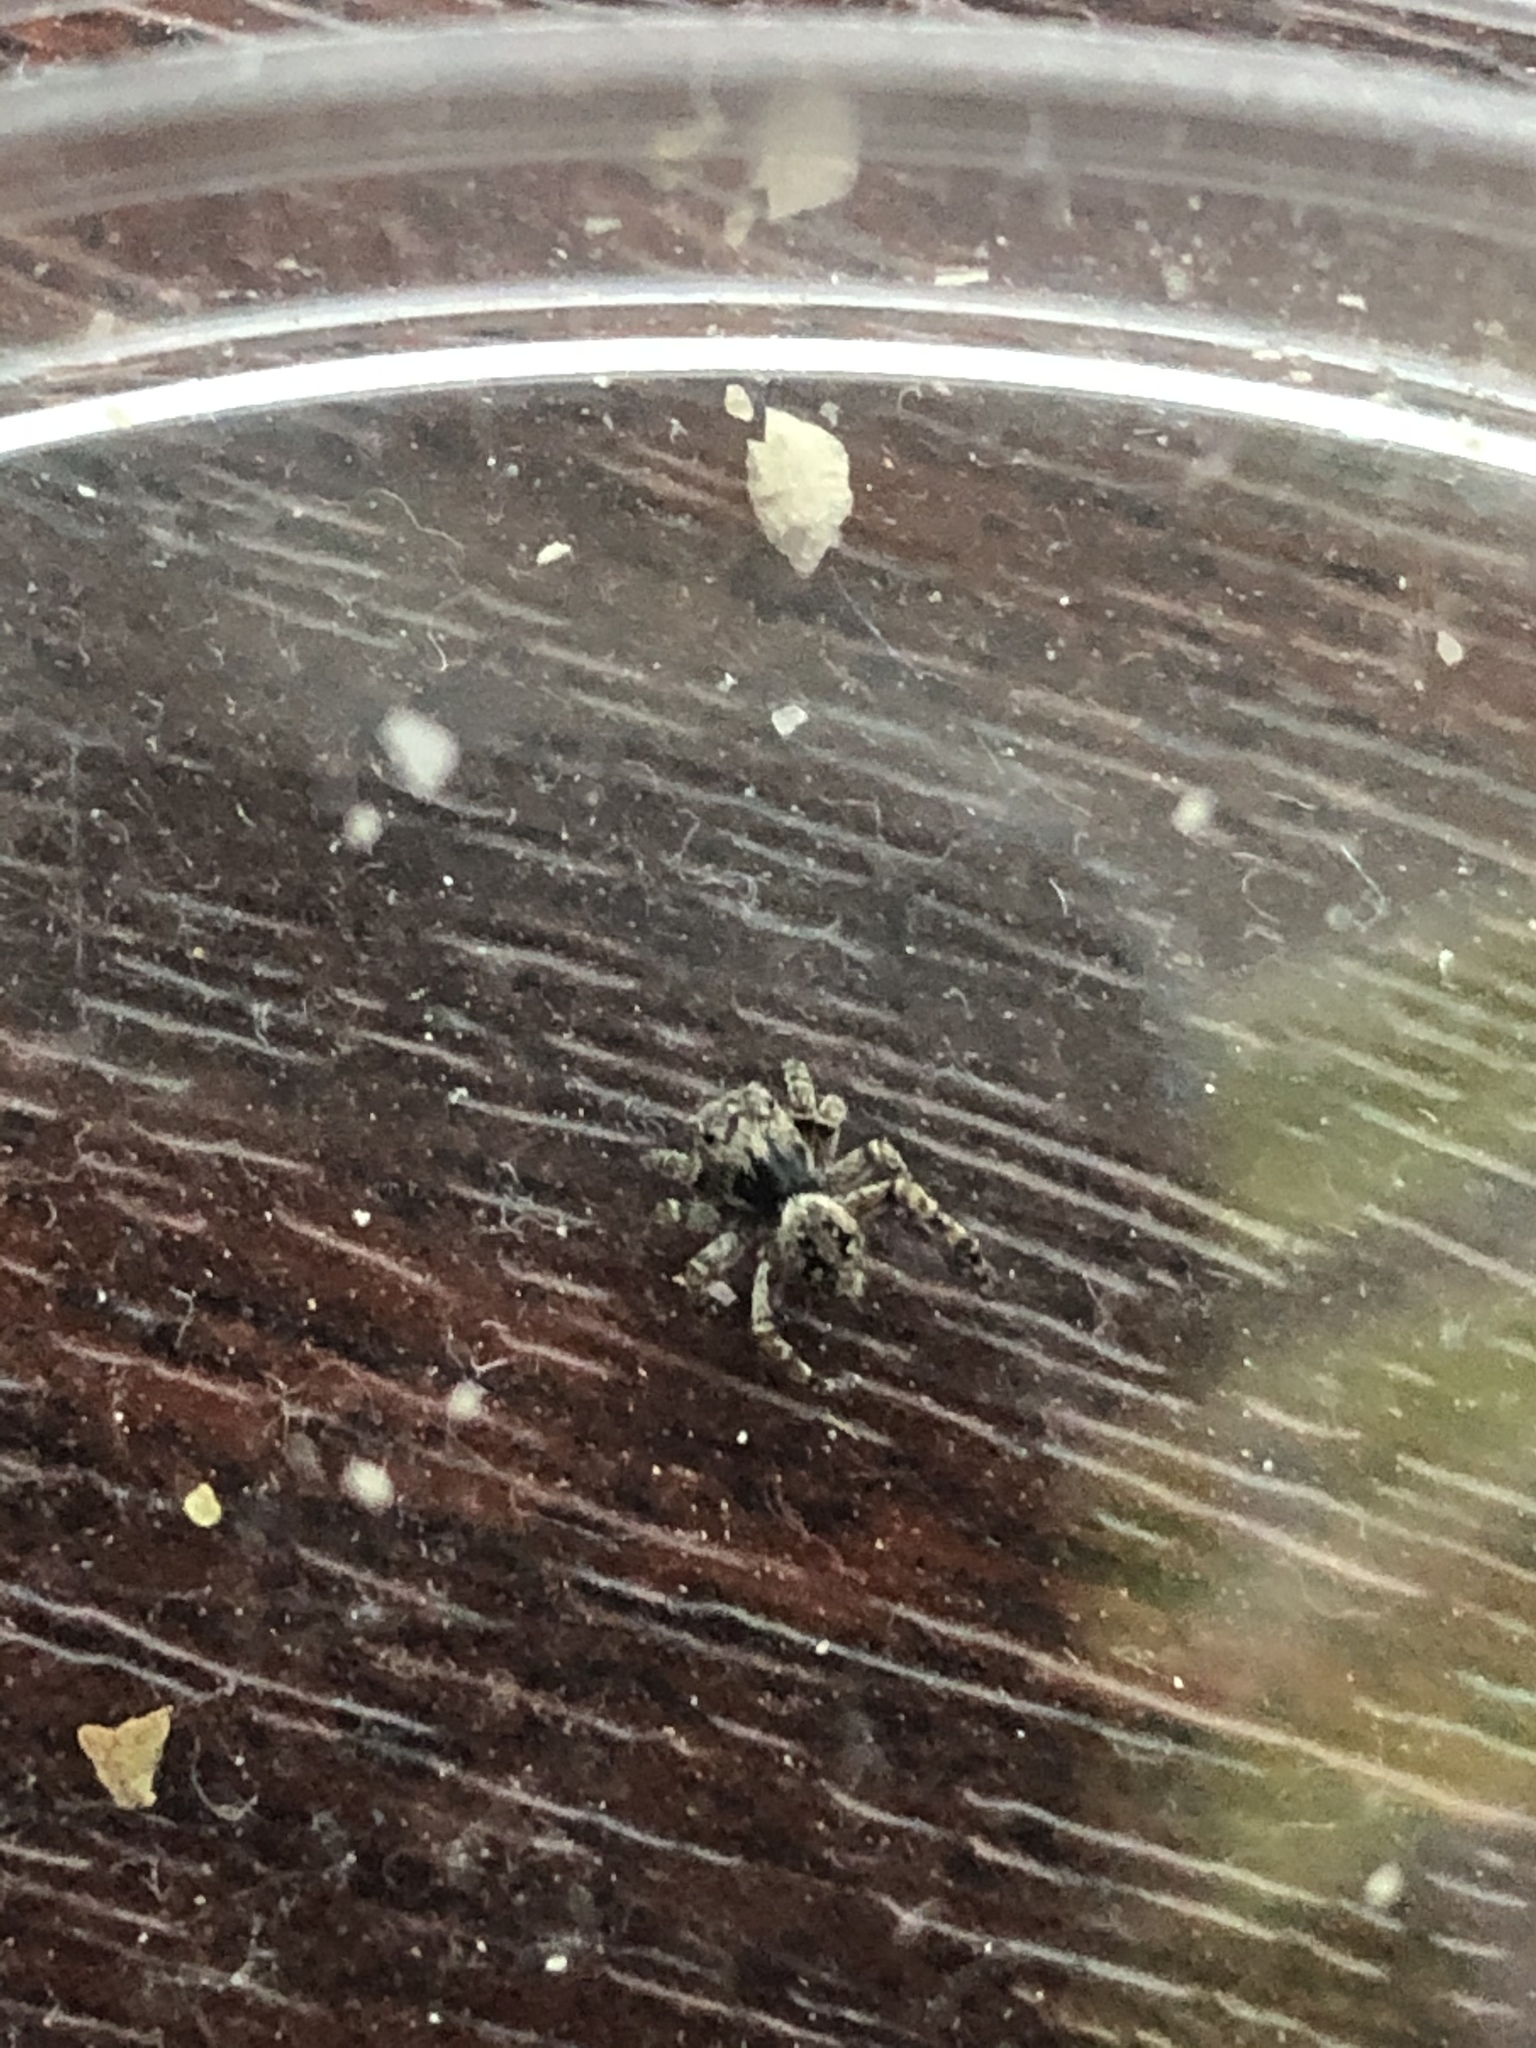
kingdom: Animalia
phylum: Arthropoda
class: Arachnida
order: Araneae
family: Salticidae
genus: Attulus
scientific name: Attulus pubescens
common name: Jumping spider
